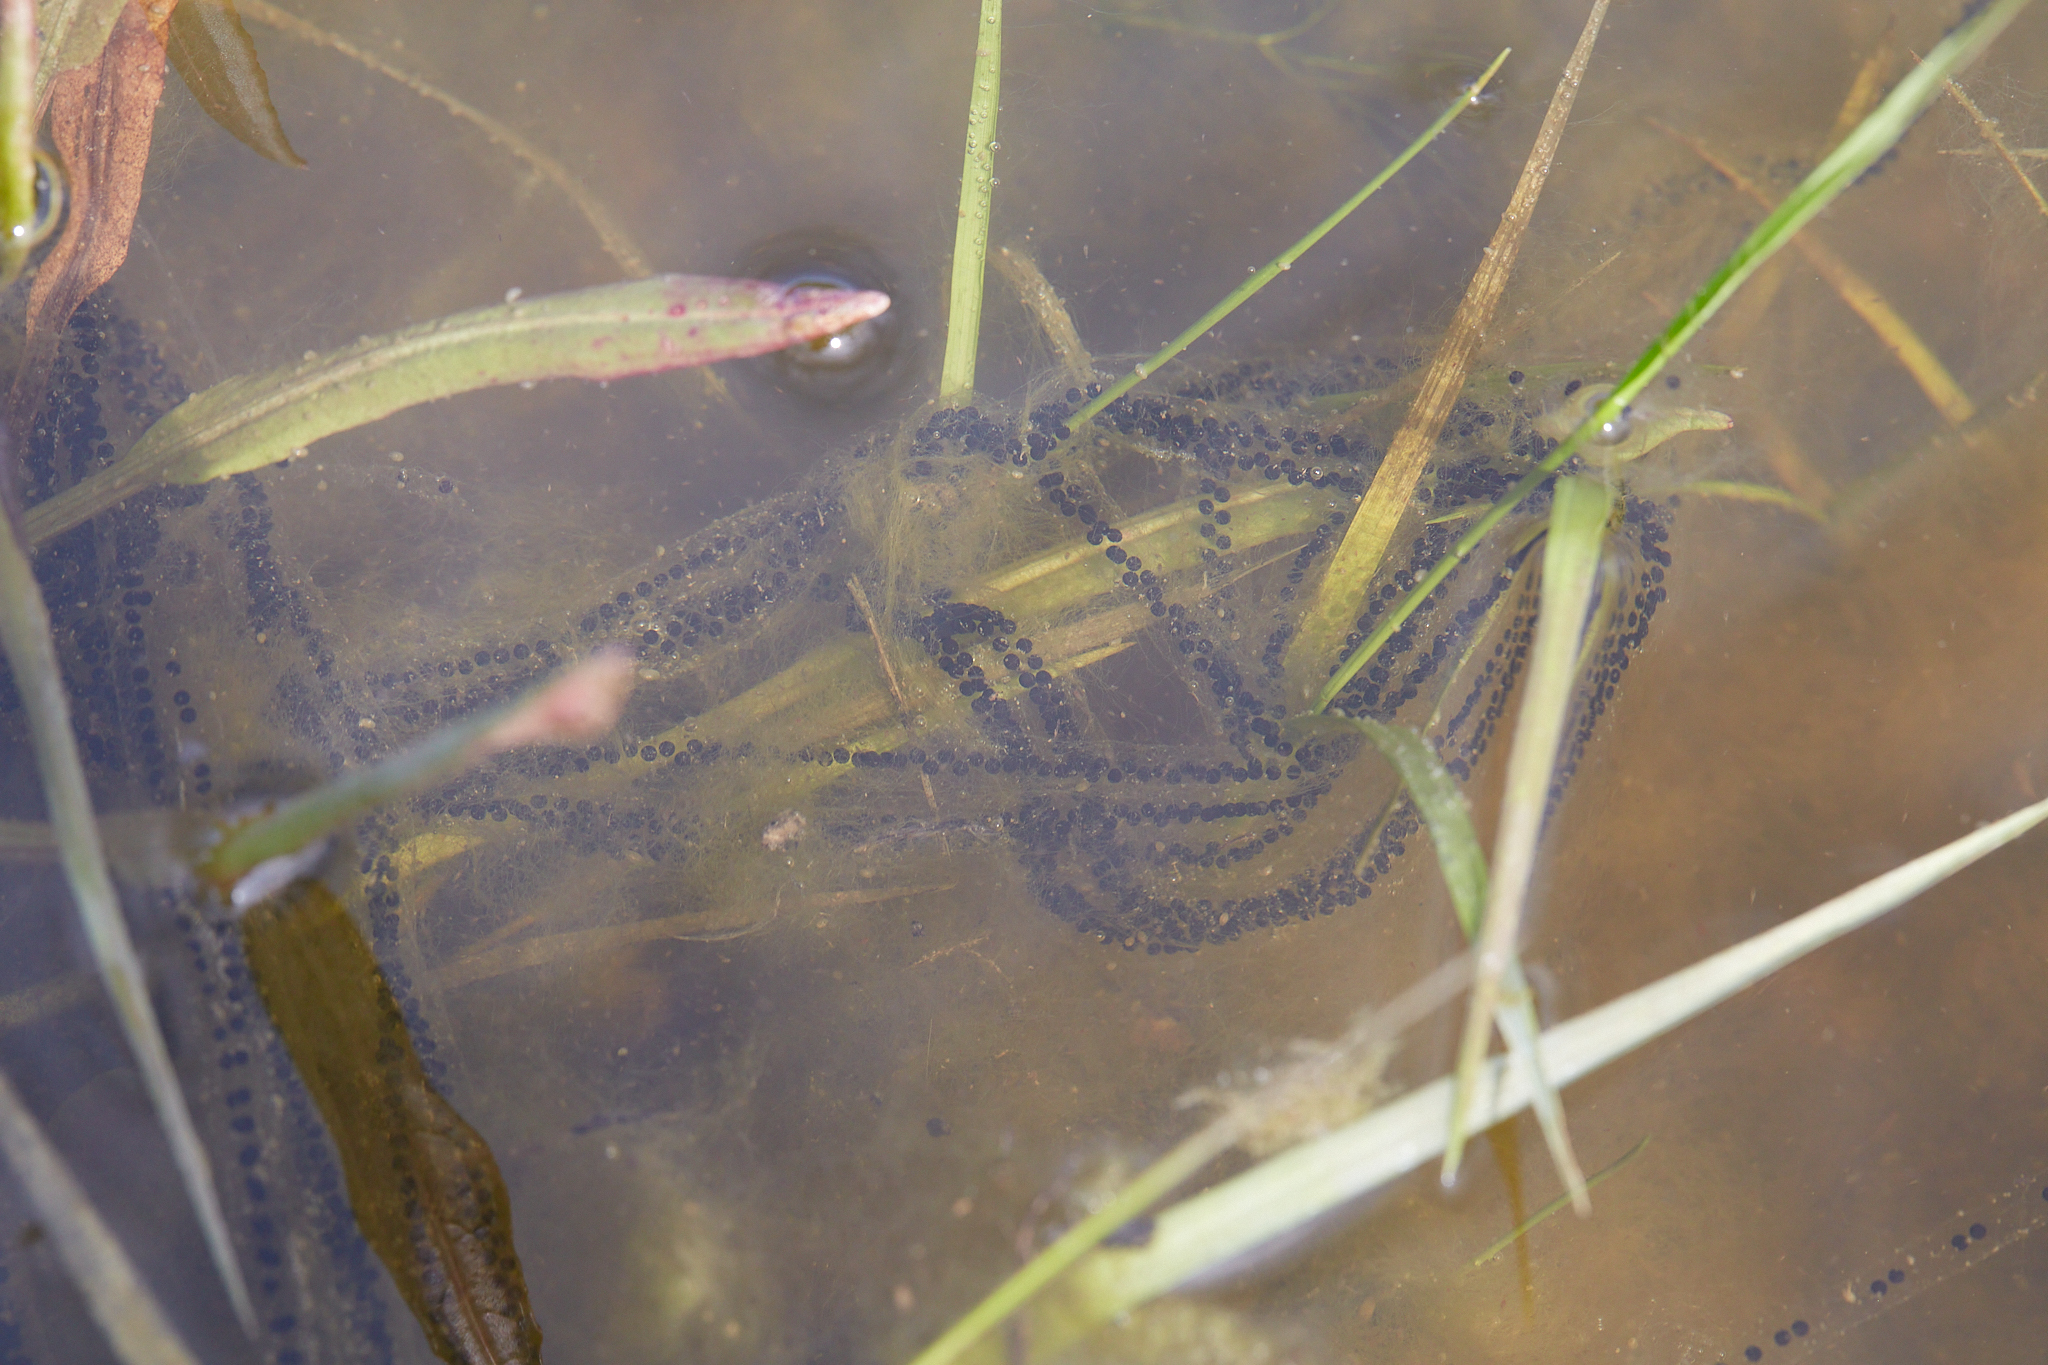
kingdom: Animalia
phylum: Chordata
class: Amphibia
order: Anura
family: Bufonidae
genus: Anaxyrus
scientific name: Anaxyrus boreas
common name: Western toad
